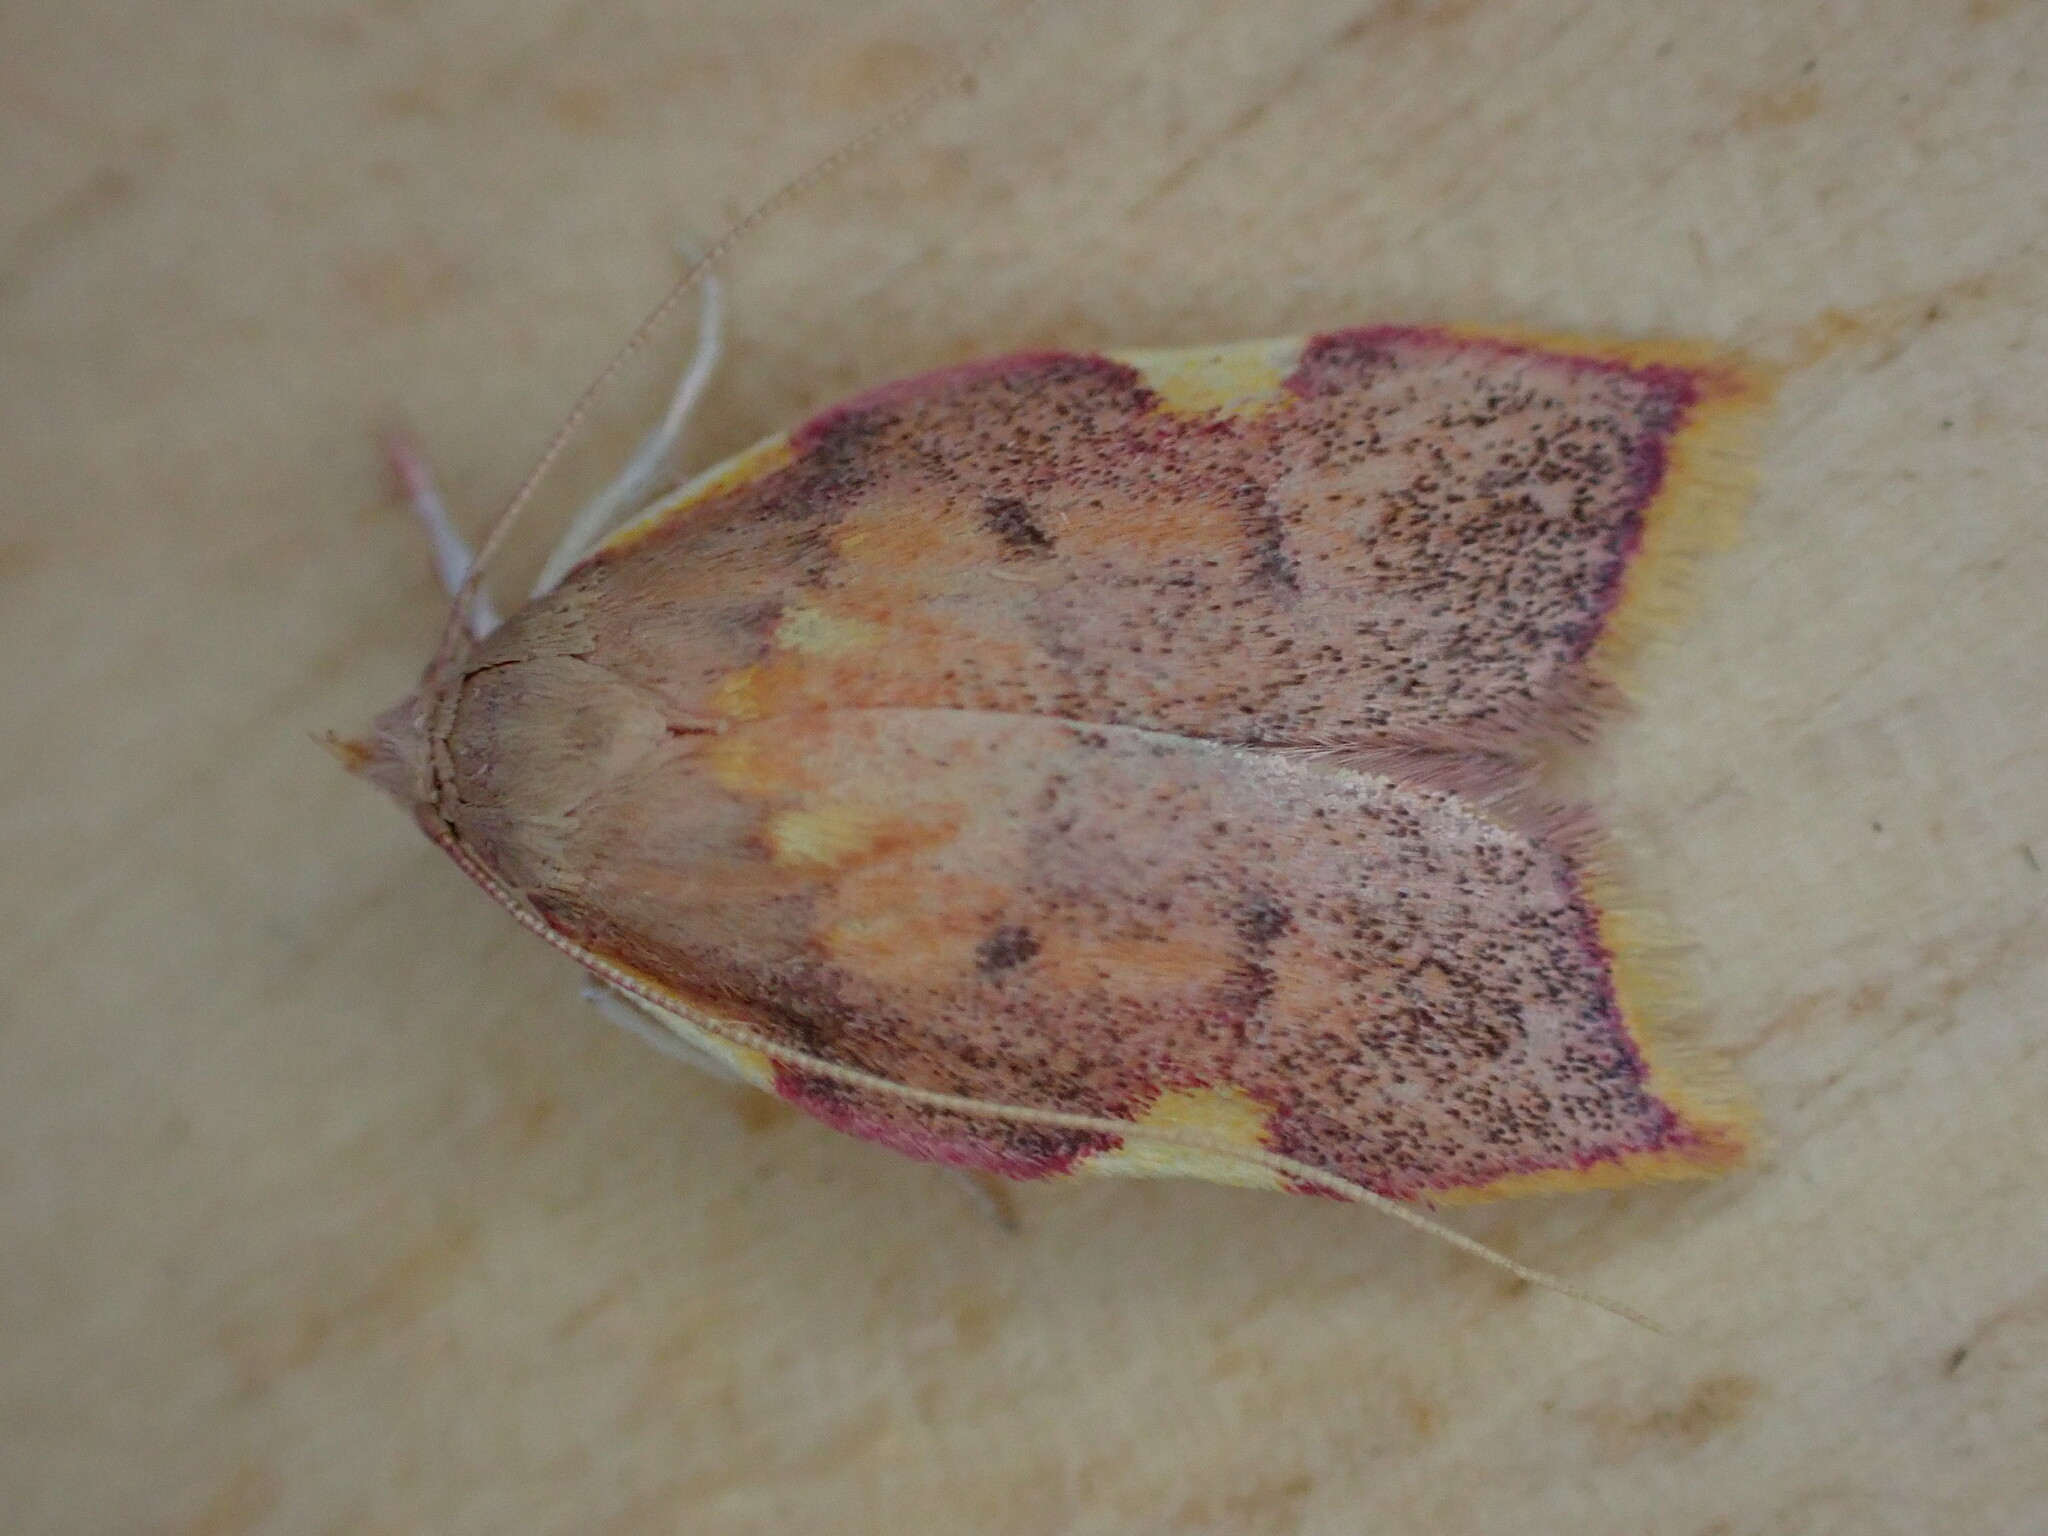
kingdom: Animalia
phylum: Arthropoda
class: Insecta
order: Lepidoptera
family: Peleopodidae
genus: Carcina
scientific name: Carcina quercana
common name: Moth
